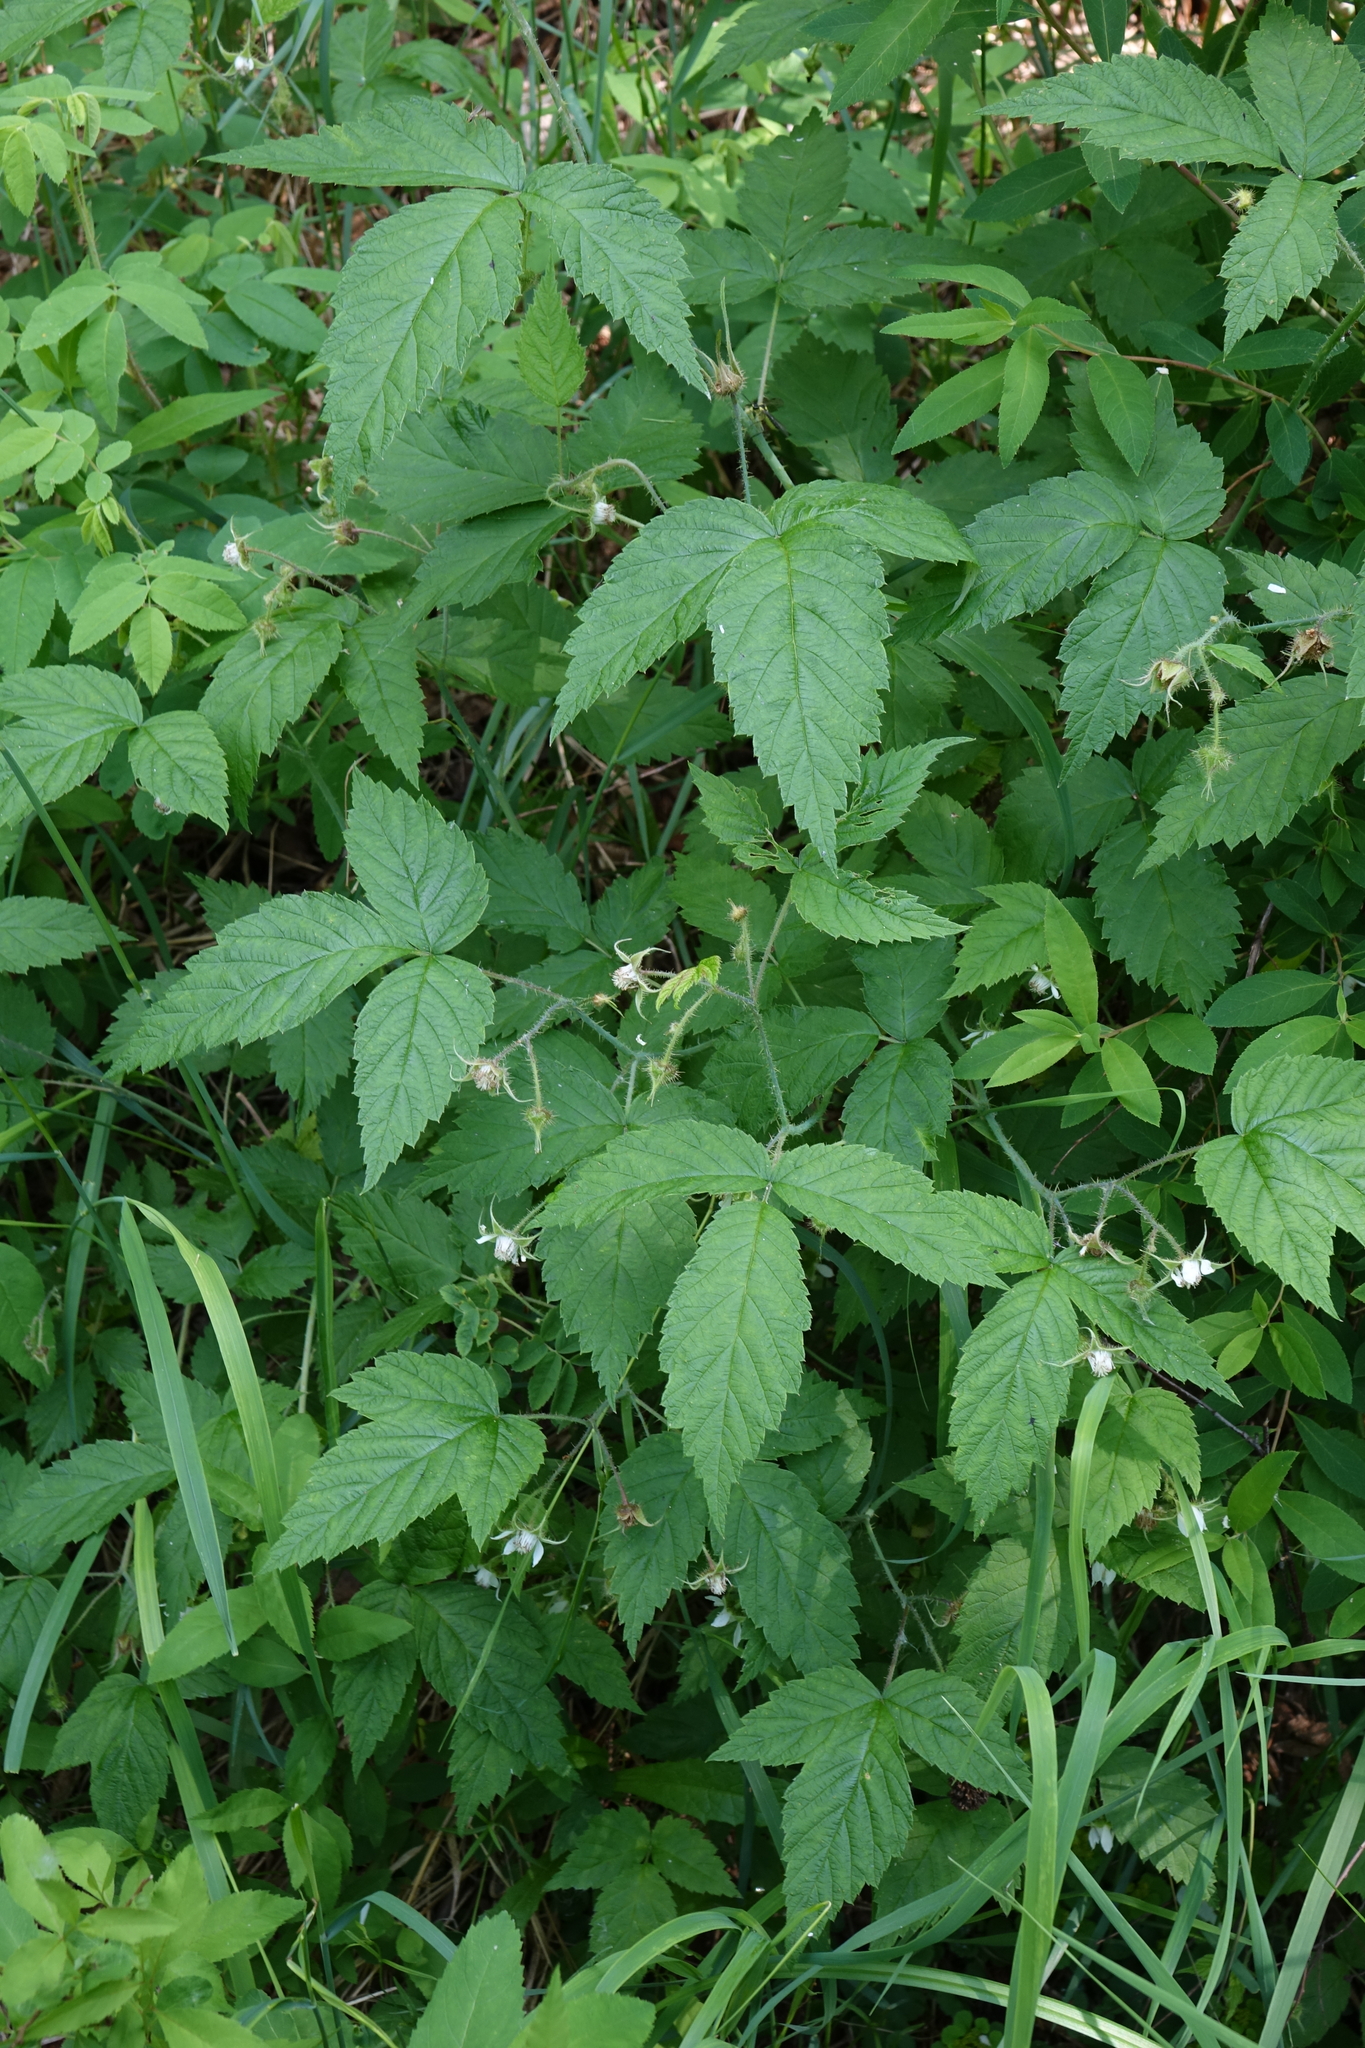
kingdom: Plantae
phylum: Tracheophyta
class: Magnoliopsida
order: Rosales
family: Rosaceae
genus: Rubus
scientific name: Rubus sachalinensis
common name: Red raspberry
